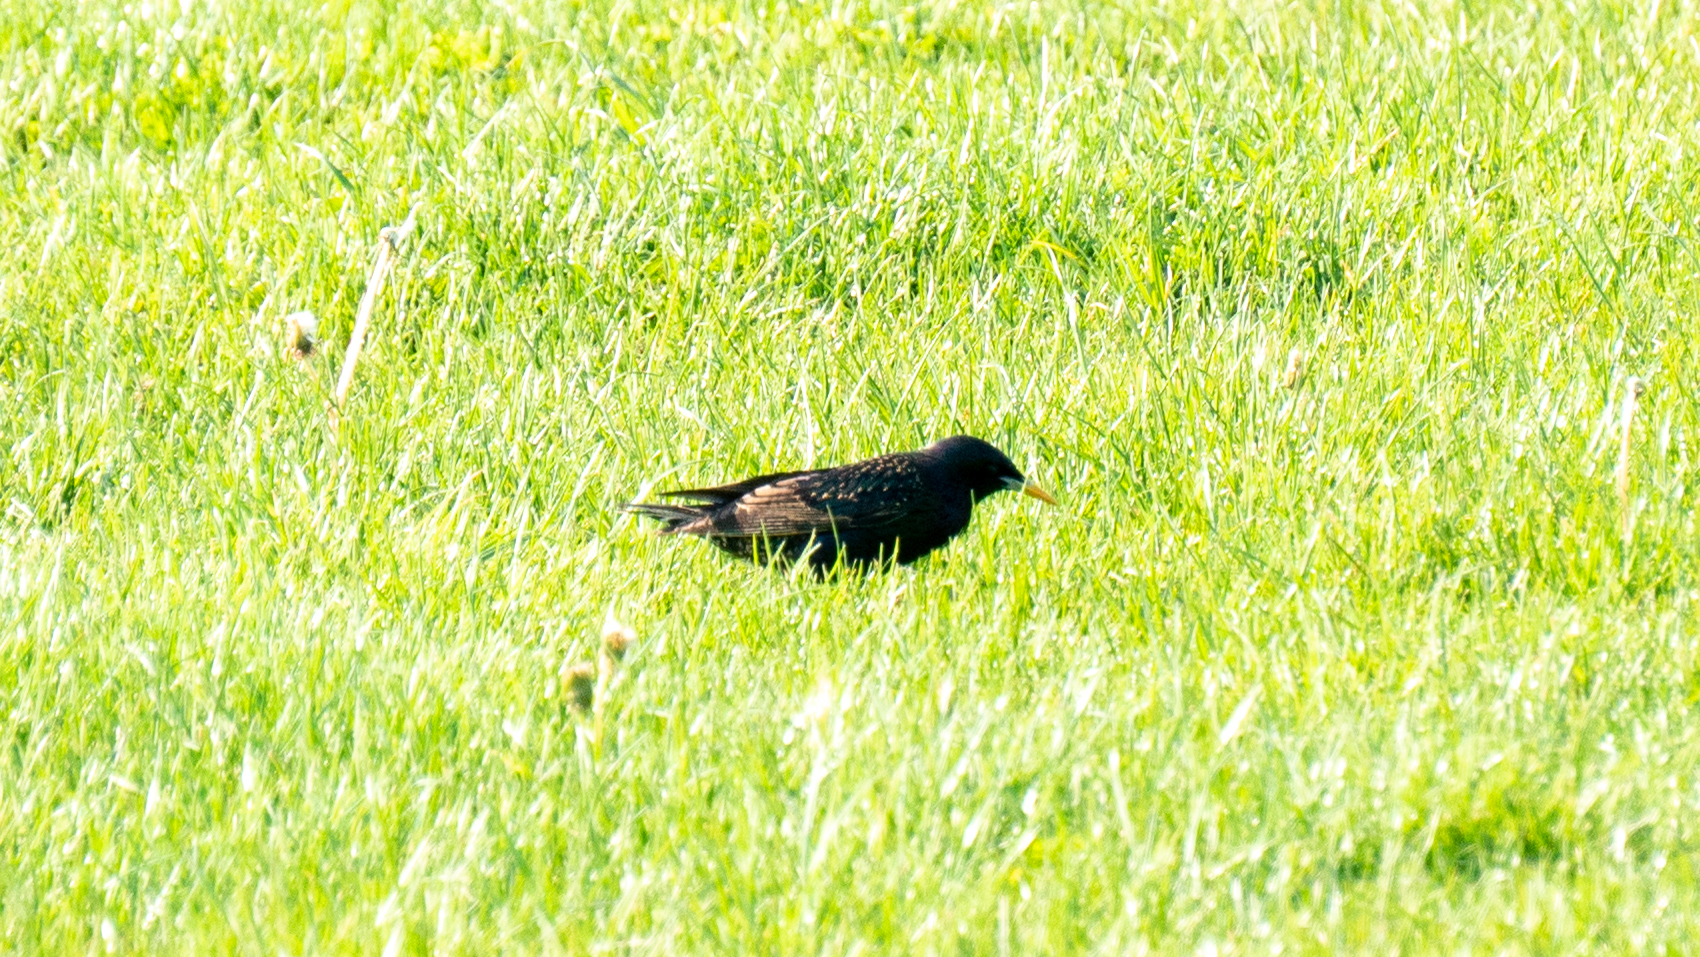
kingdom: Animalia
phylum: Chordata
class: Aves
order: Passeriformes
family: Sturnidae
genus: Sturnus
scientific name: Sturnus vulgaris
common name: Common starling
